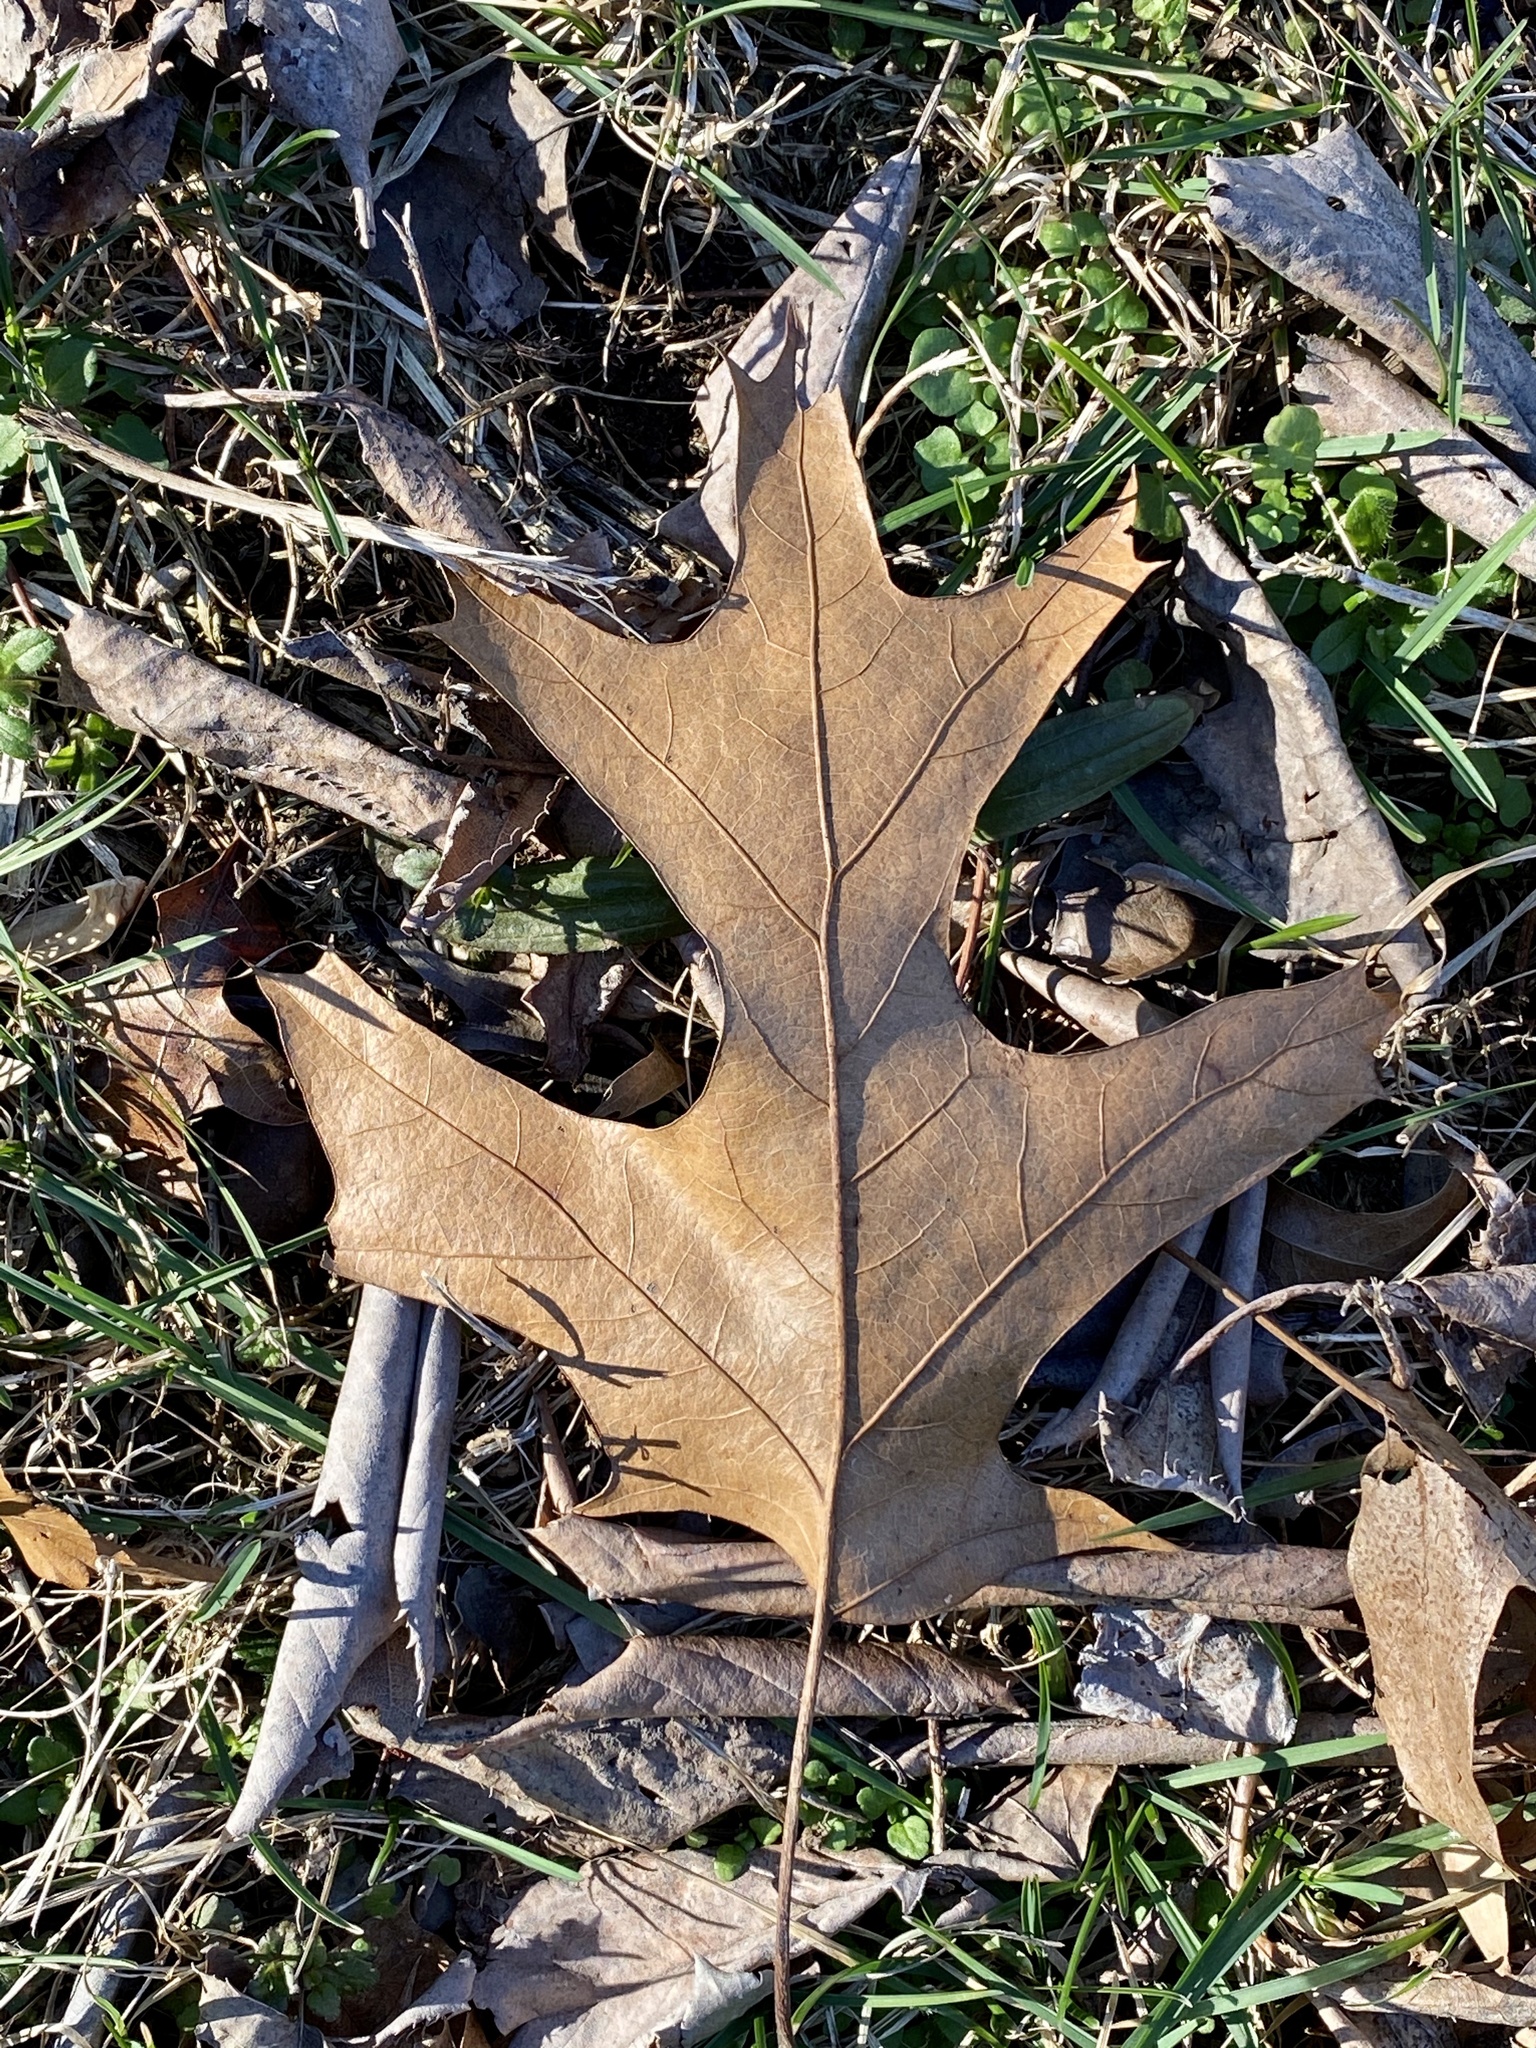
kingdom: Plantae
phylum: Tracheophyta
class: Magnoliopsida
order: Fagales
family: Fagaceae
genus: Quercus
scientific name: Quercus velutina
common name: Black oak
